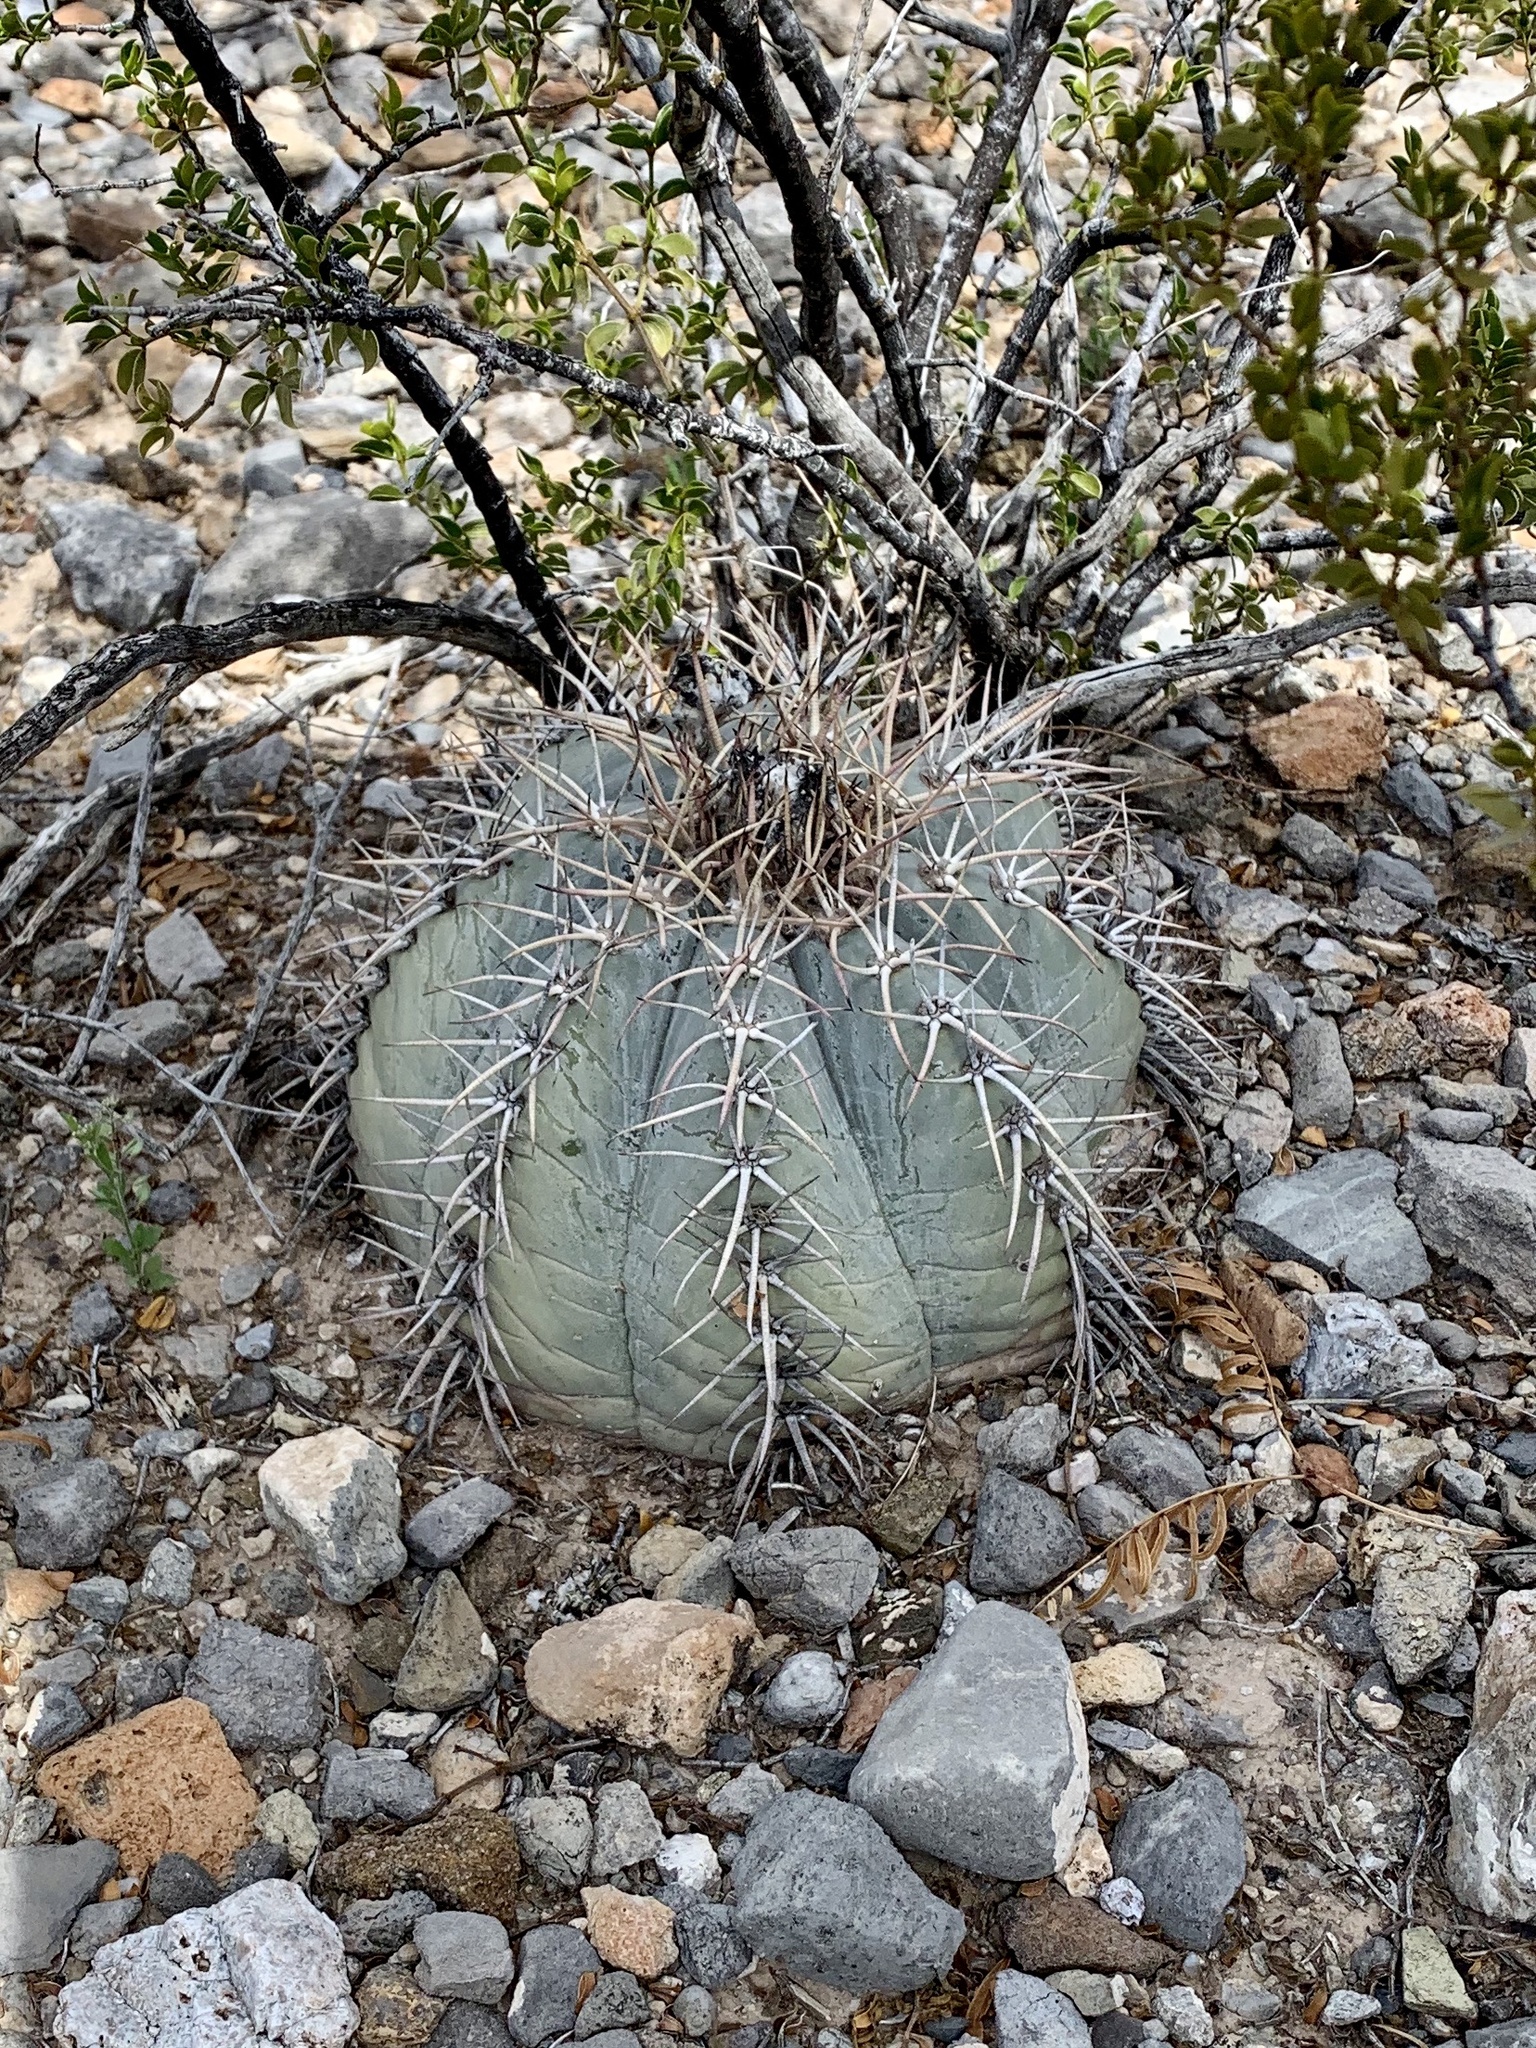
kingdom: Plantae
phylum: Tracheophyta
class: Magnoliopsida
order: Caryophyllales
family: Cactaceae
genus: Echinocactus
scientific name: Echinocactus horizonthalonius
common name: Devilshead
